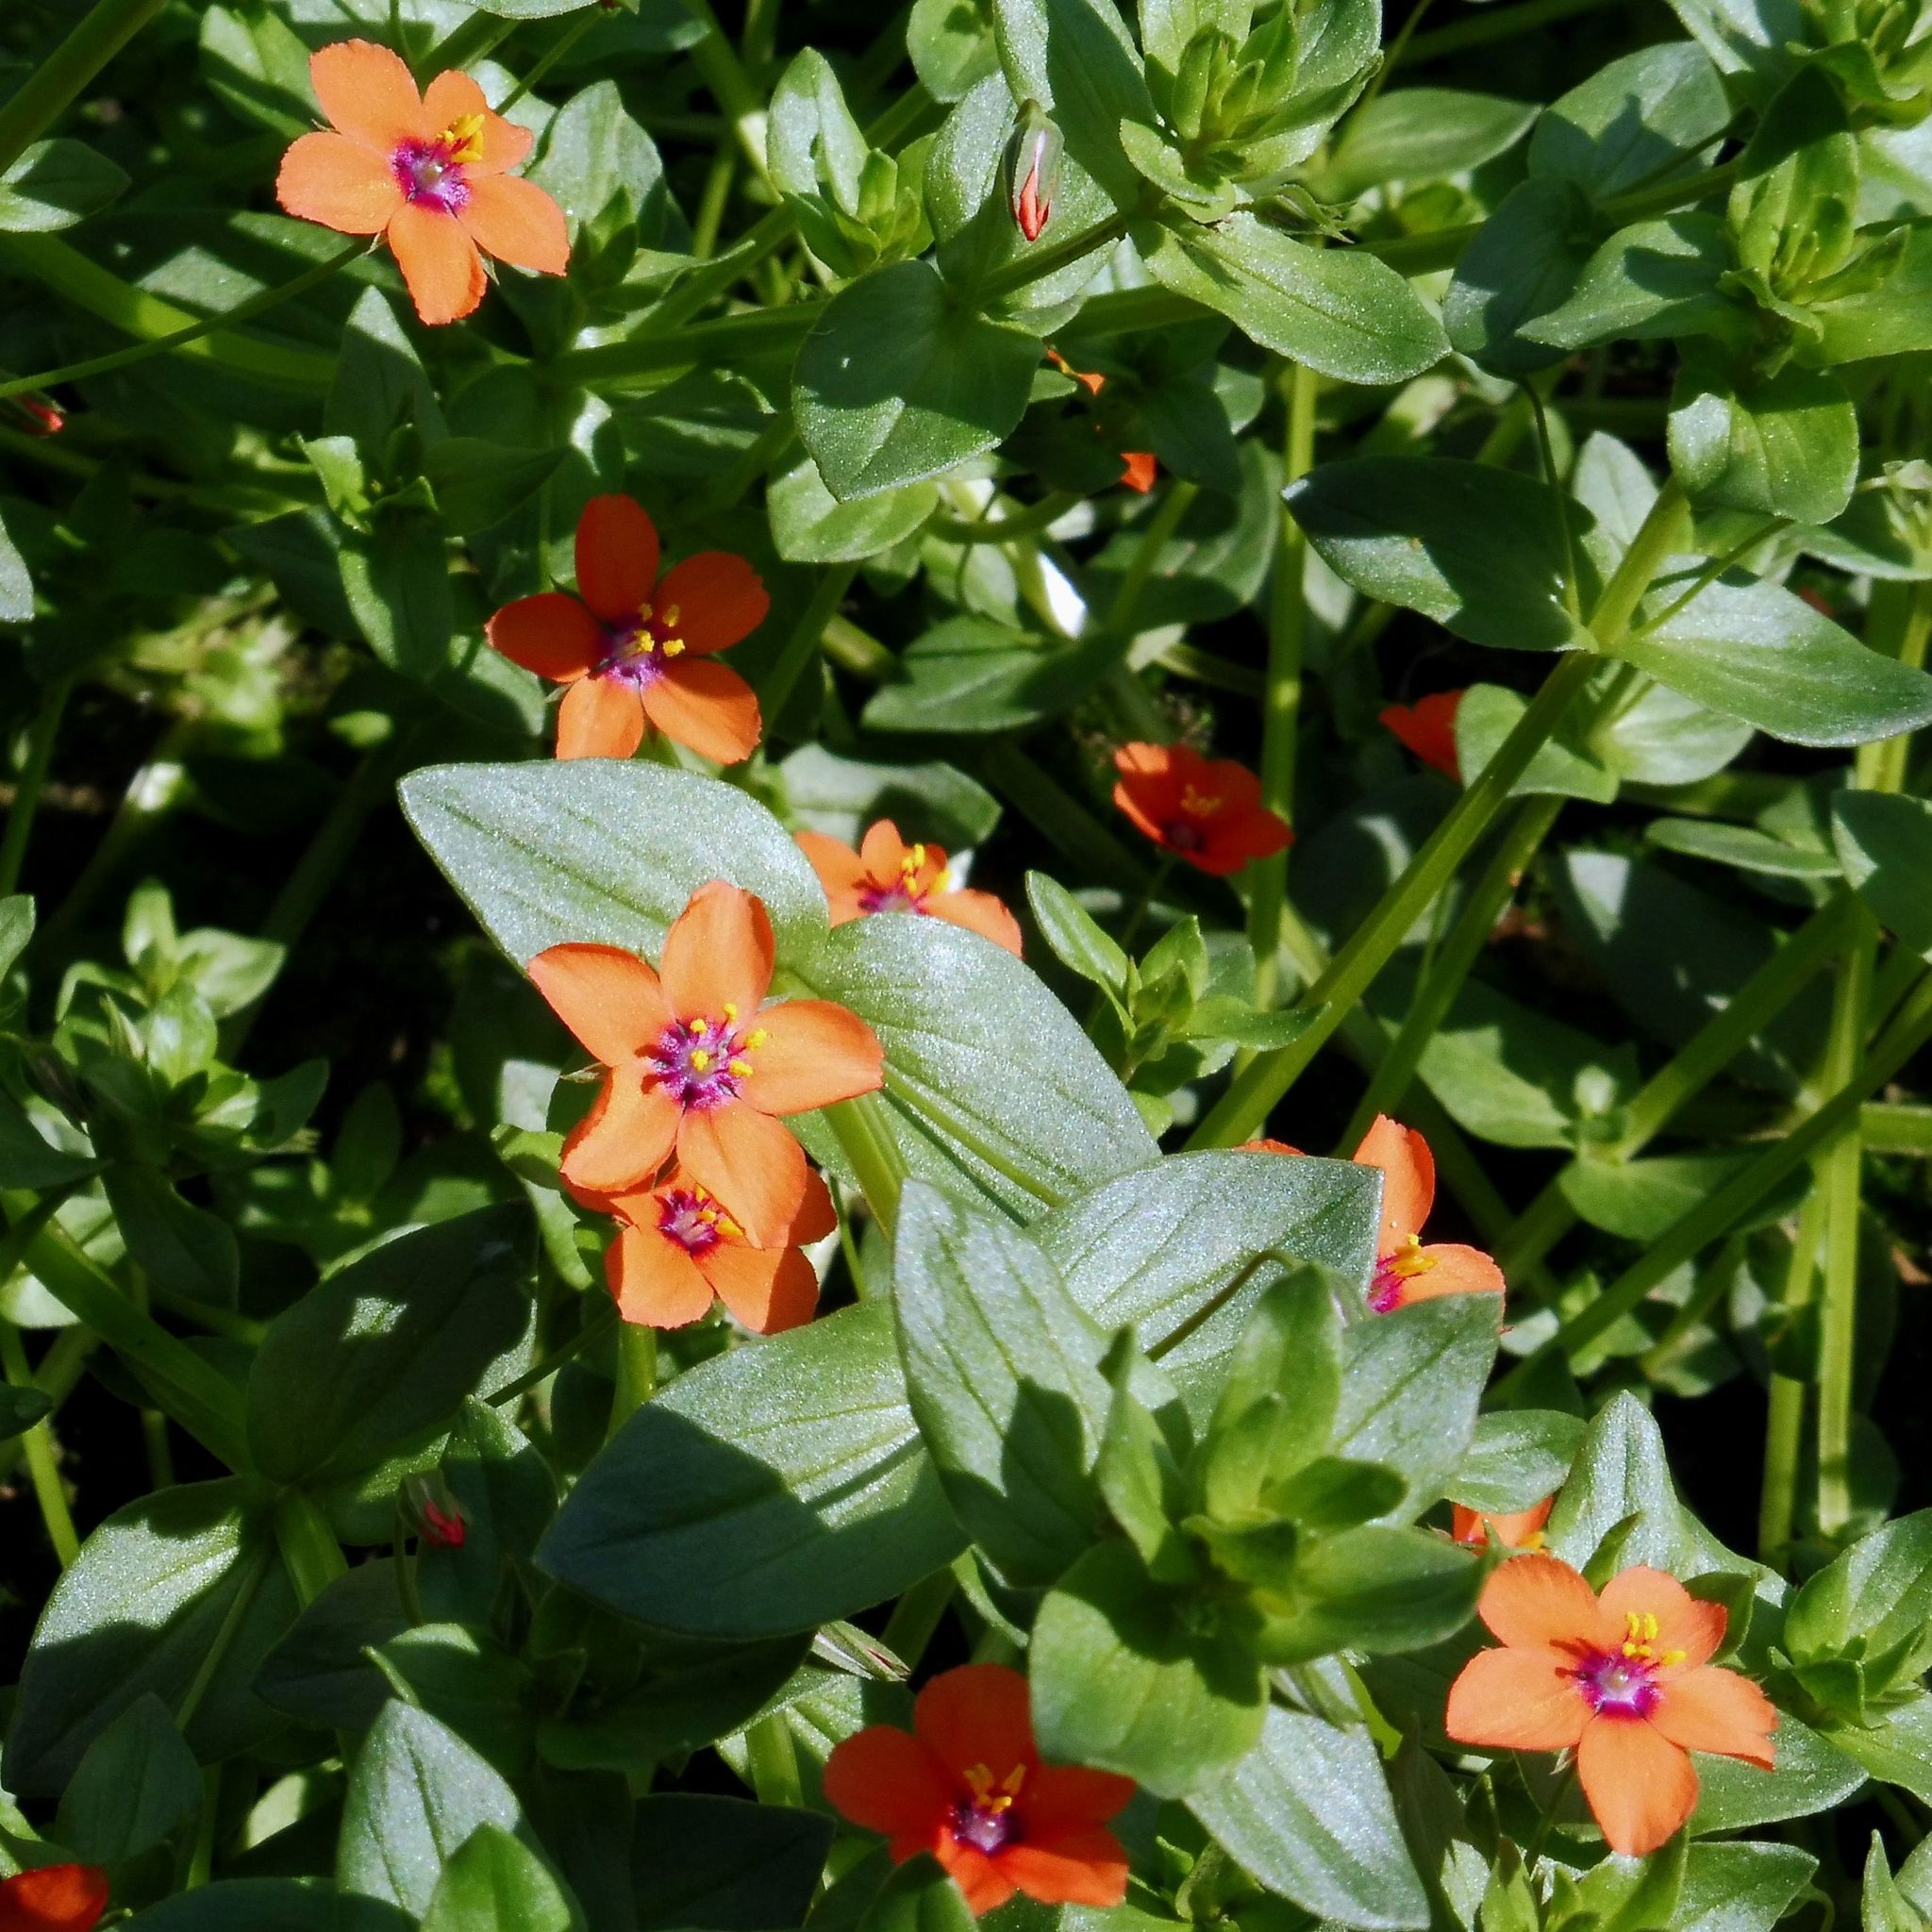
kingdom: Plantae
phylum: Tracheophyta
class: Magnoliopsida
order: Ericales
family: Primulaceae
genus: Lysimachia
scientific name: Lysimachia arvensis
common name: Scarlet pimpernel
